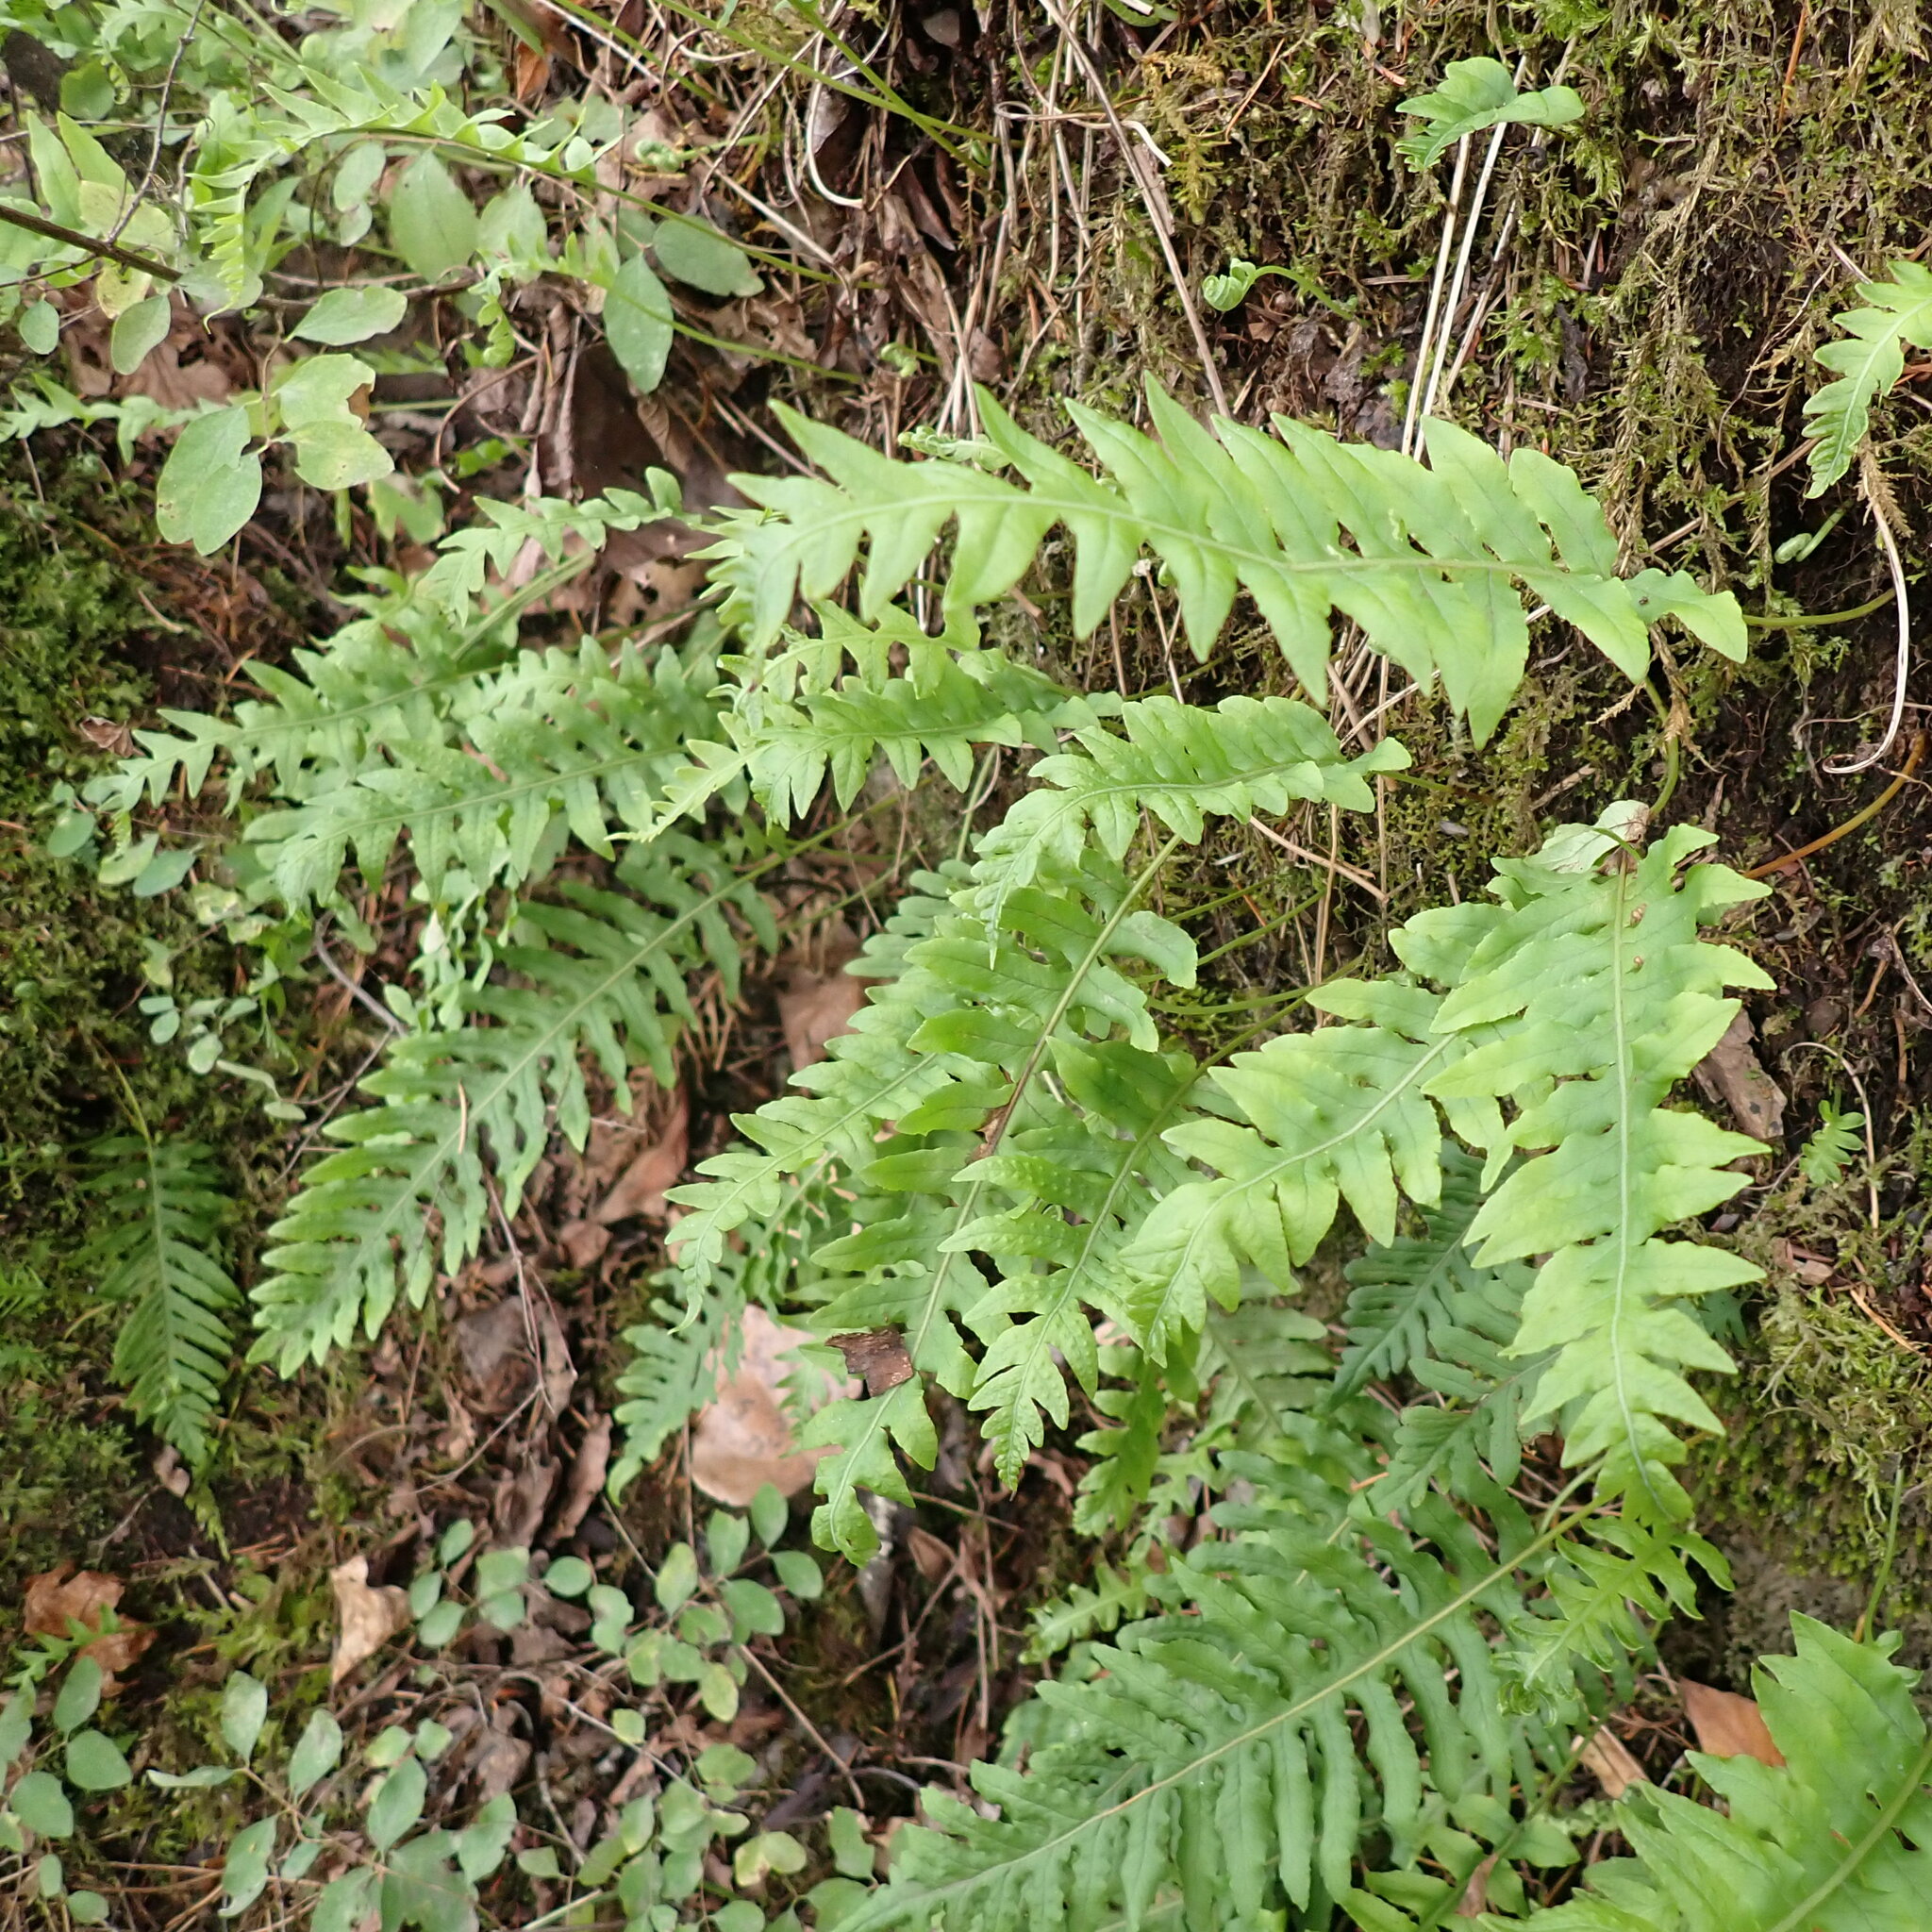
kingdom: Plantae
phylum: Tracheophyta
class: Polypodiopsida
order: Polypodiales
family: Polypodiaceae
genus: Polypodium
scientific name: Polypodium glycyrrhiza
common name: Licorice fern
